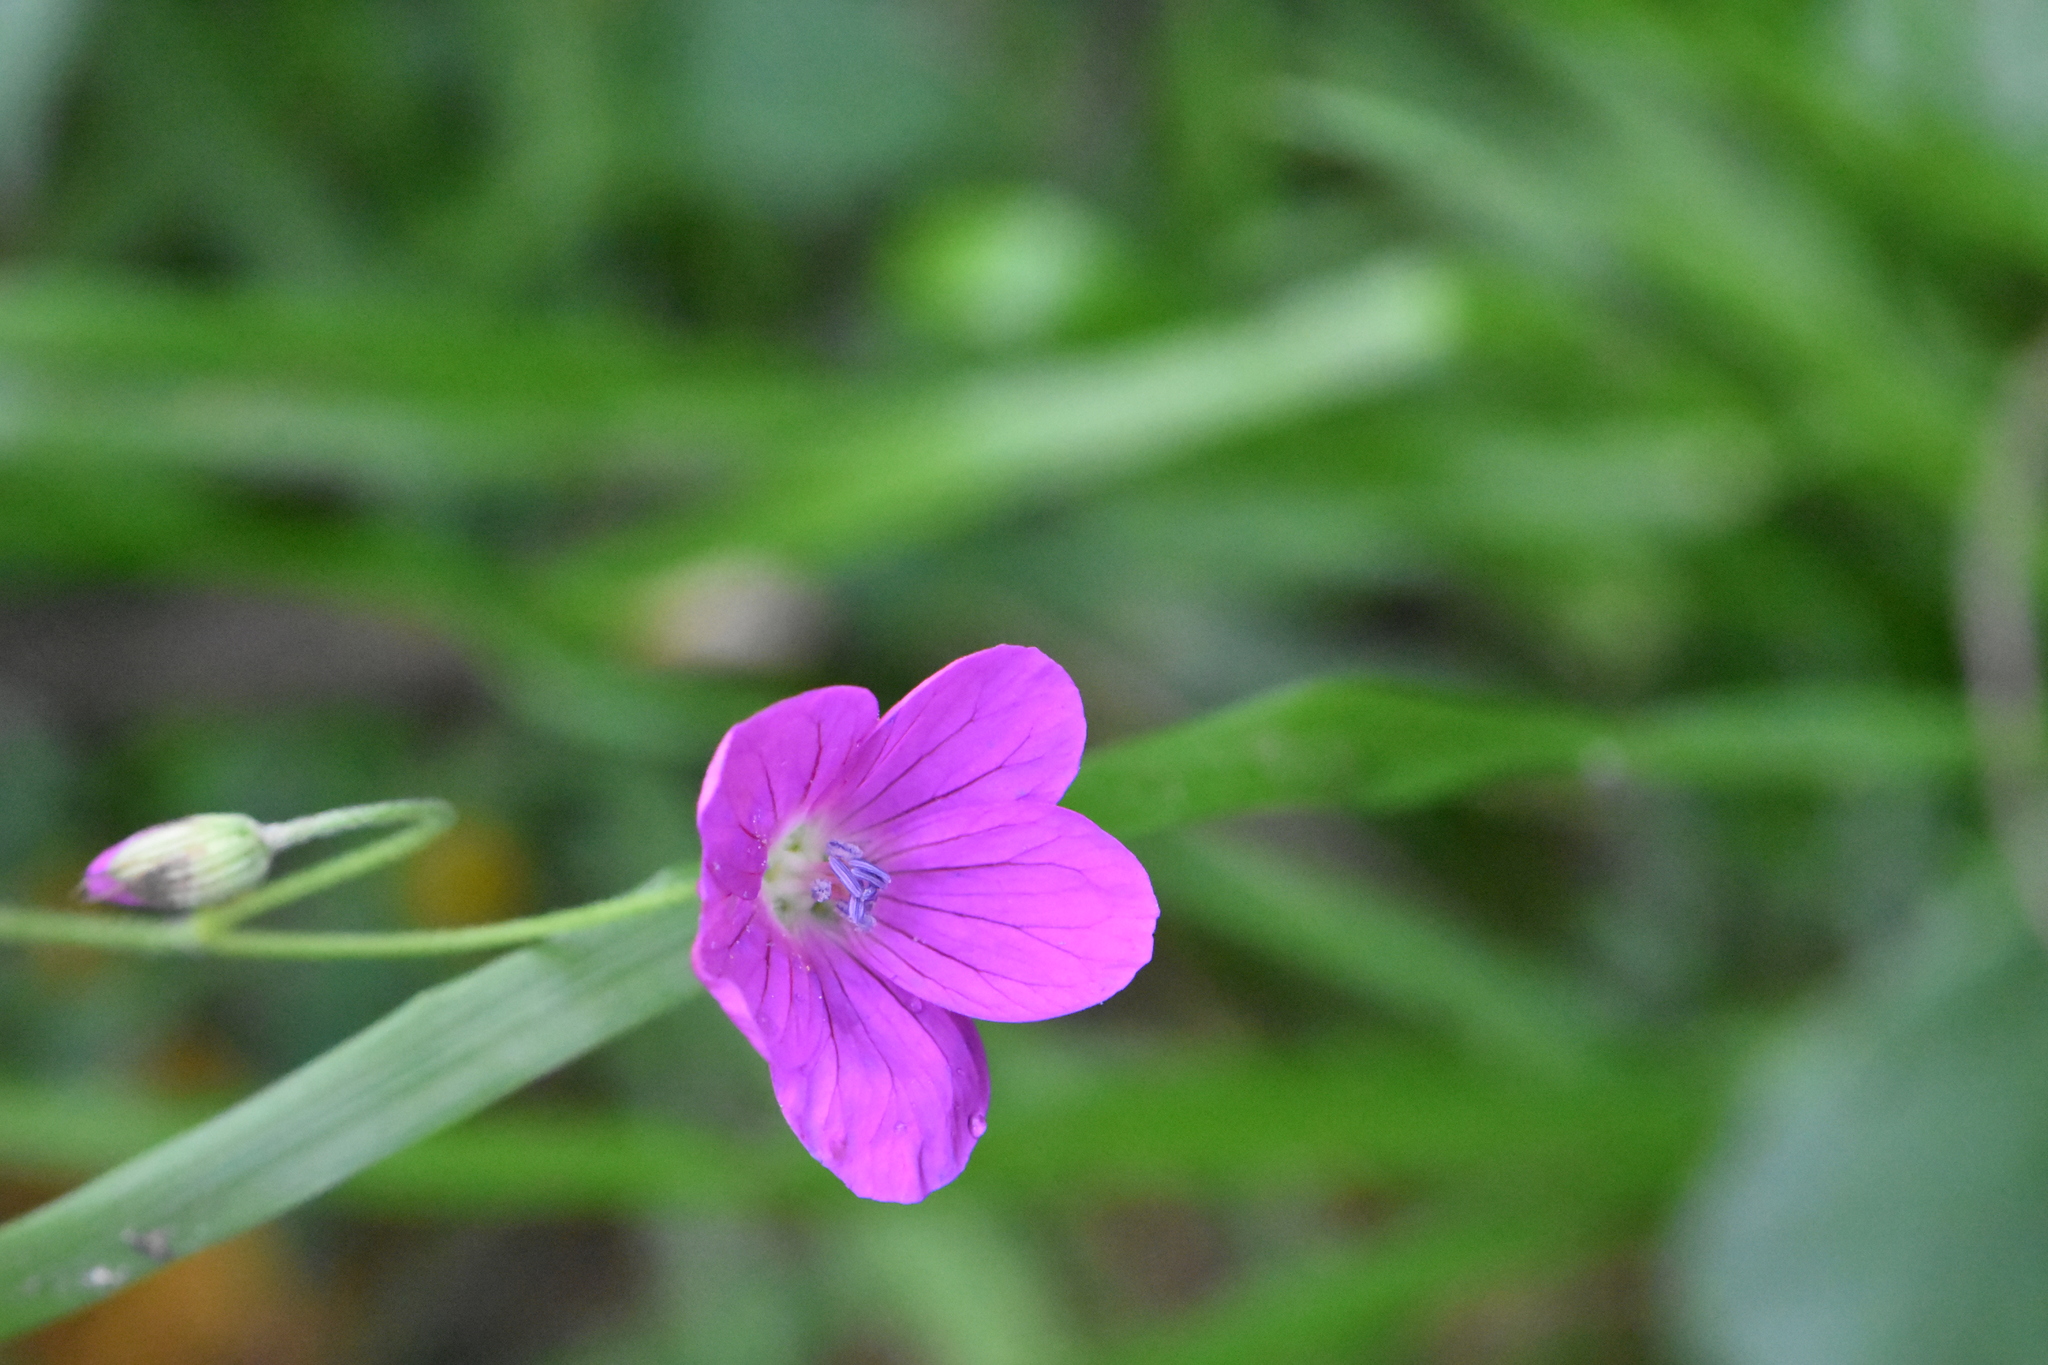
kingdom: Plantae
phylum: Tracheophyta
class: Magnoliopsida
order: Geraniales
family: Geraniaceae
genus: Geranium
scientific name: Geranium palustre
